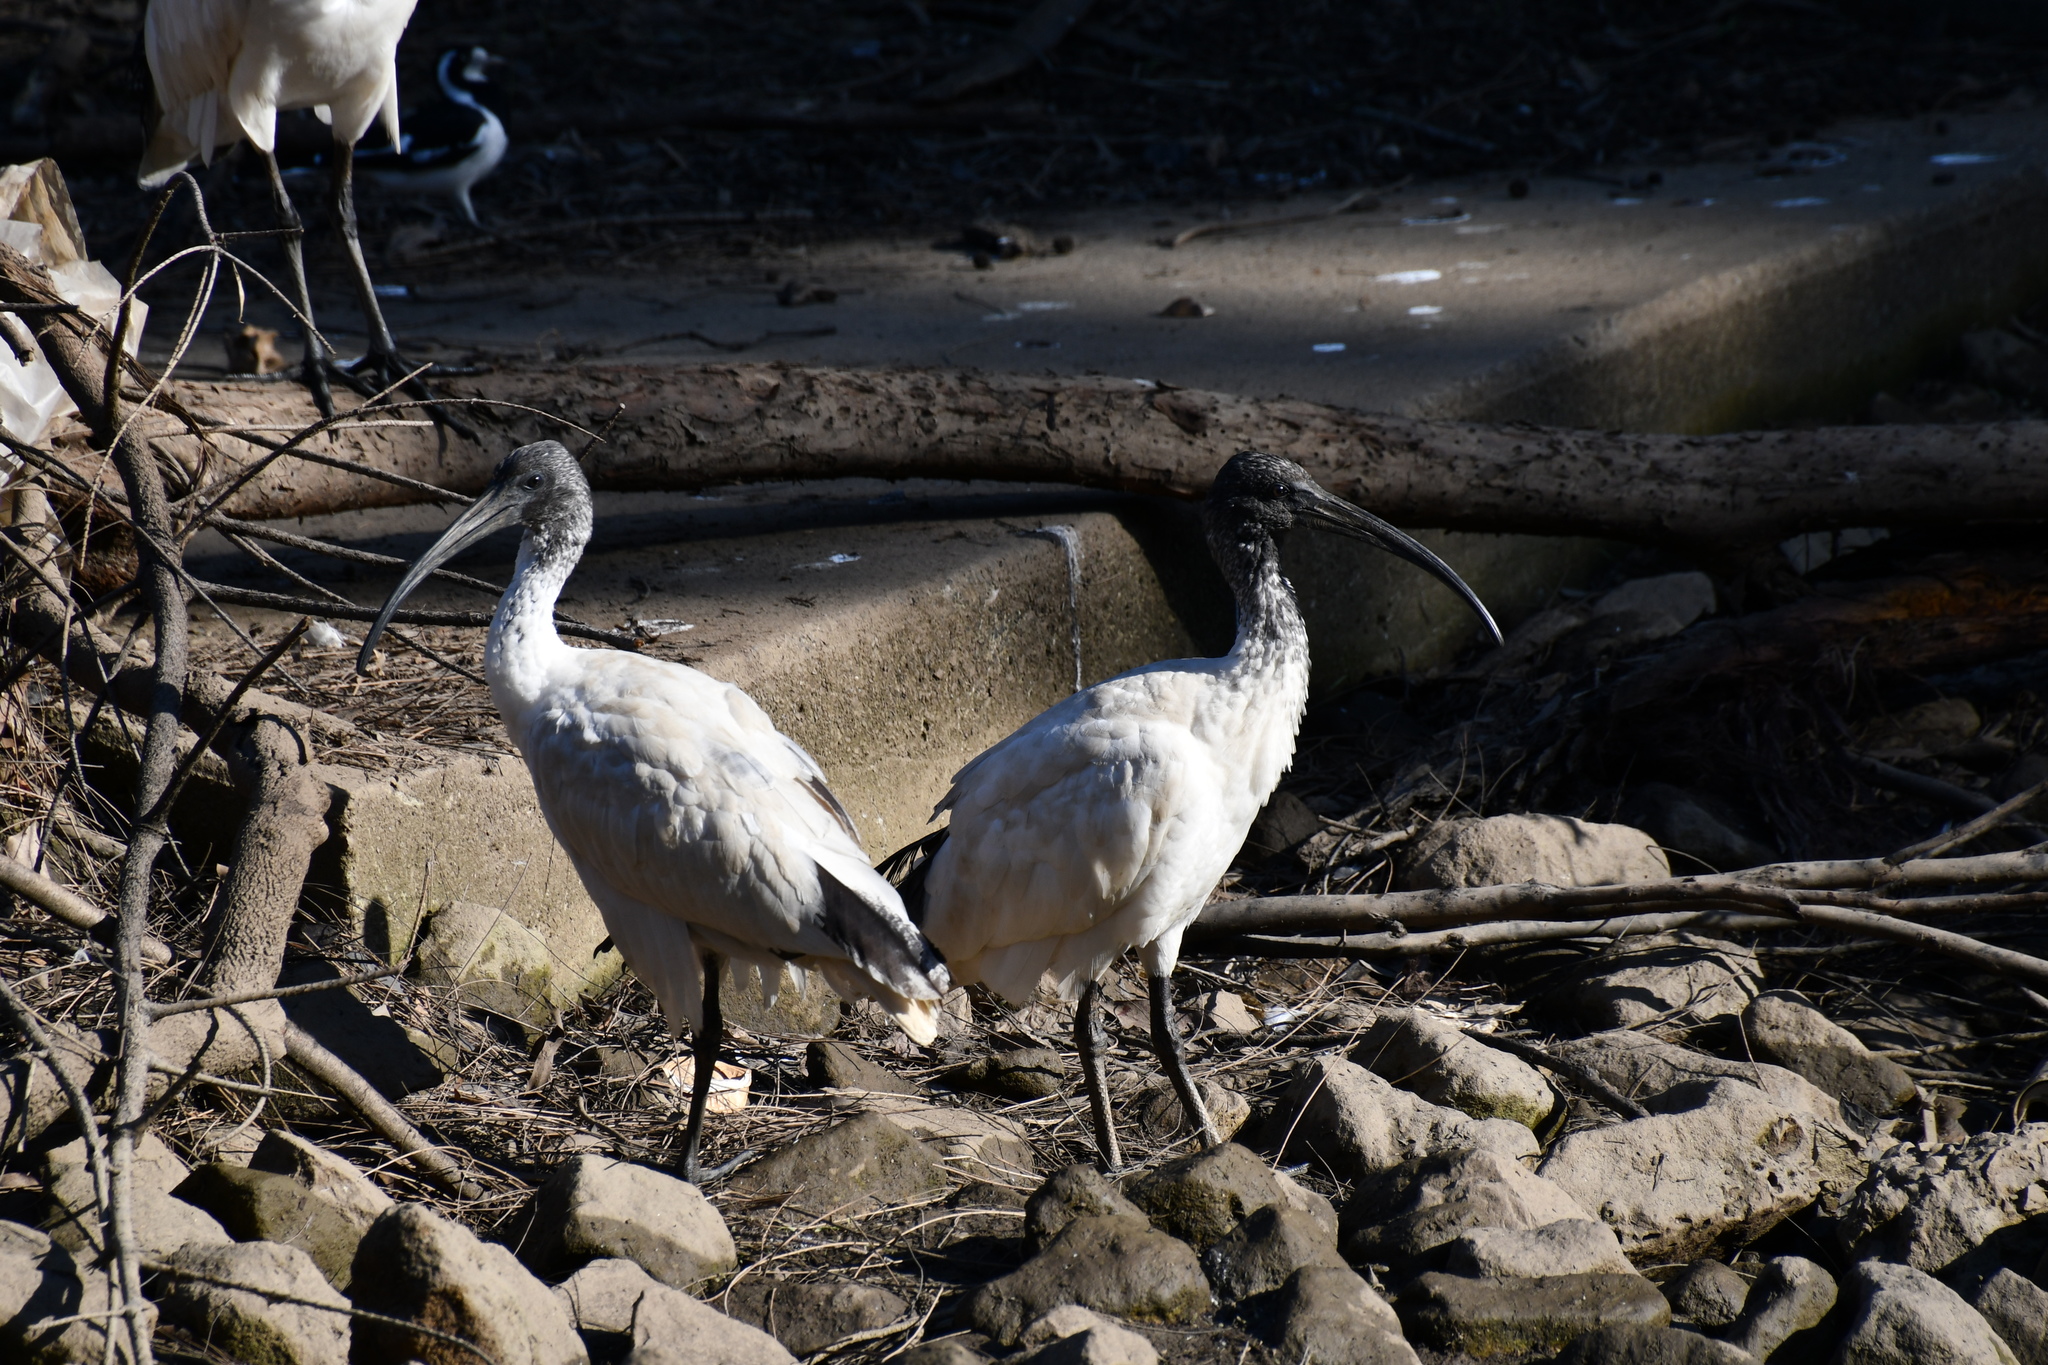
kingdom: Animalia
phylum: Chordata
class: Aves
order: Pelecaniformes
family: Threskiornithidae
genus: Threskiornis
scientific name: Threskiornis molucca
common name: Australian white ibis
